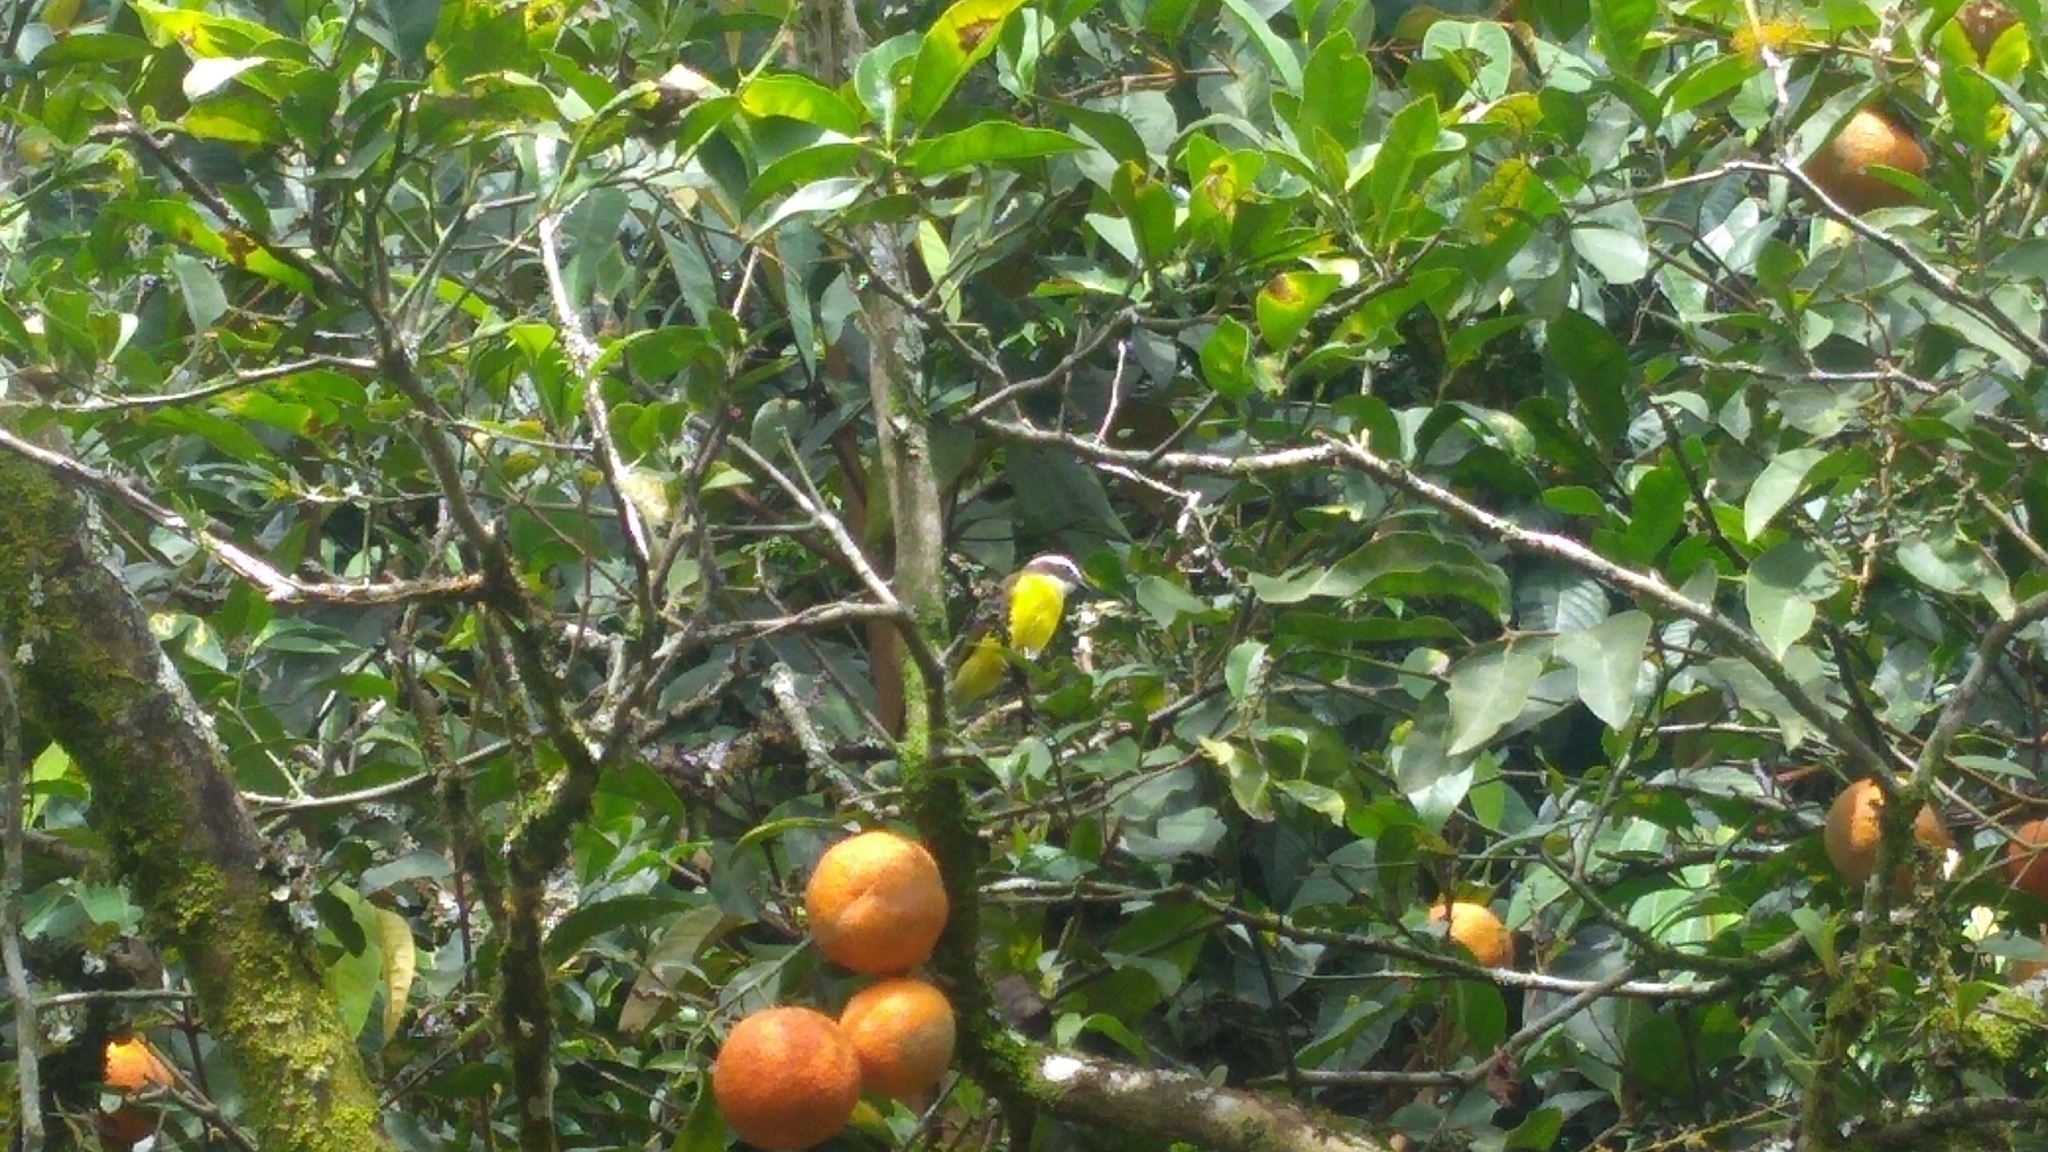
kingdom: Animalia
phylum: Chordata
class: Aves
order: Passeriformes
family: Tyrannidae
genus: Myiozetetes
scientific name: Myiozetetes cayanensis
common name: Rusty-margined flycatcher
